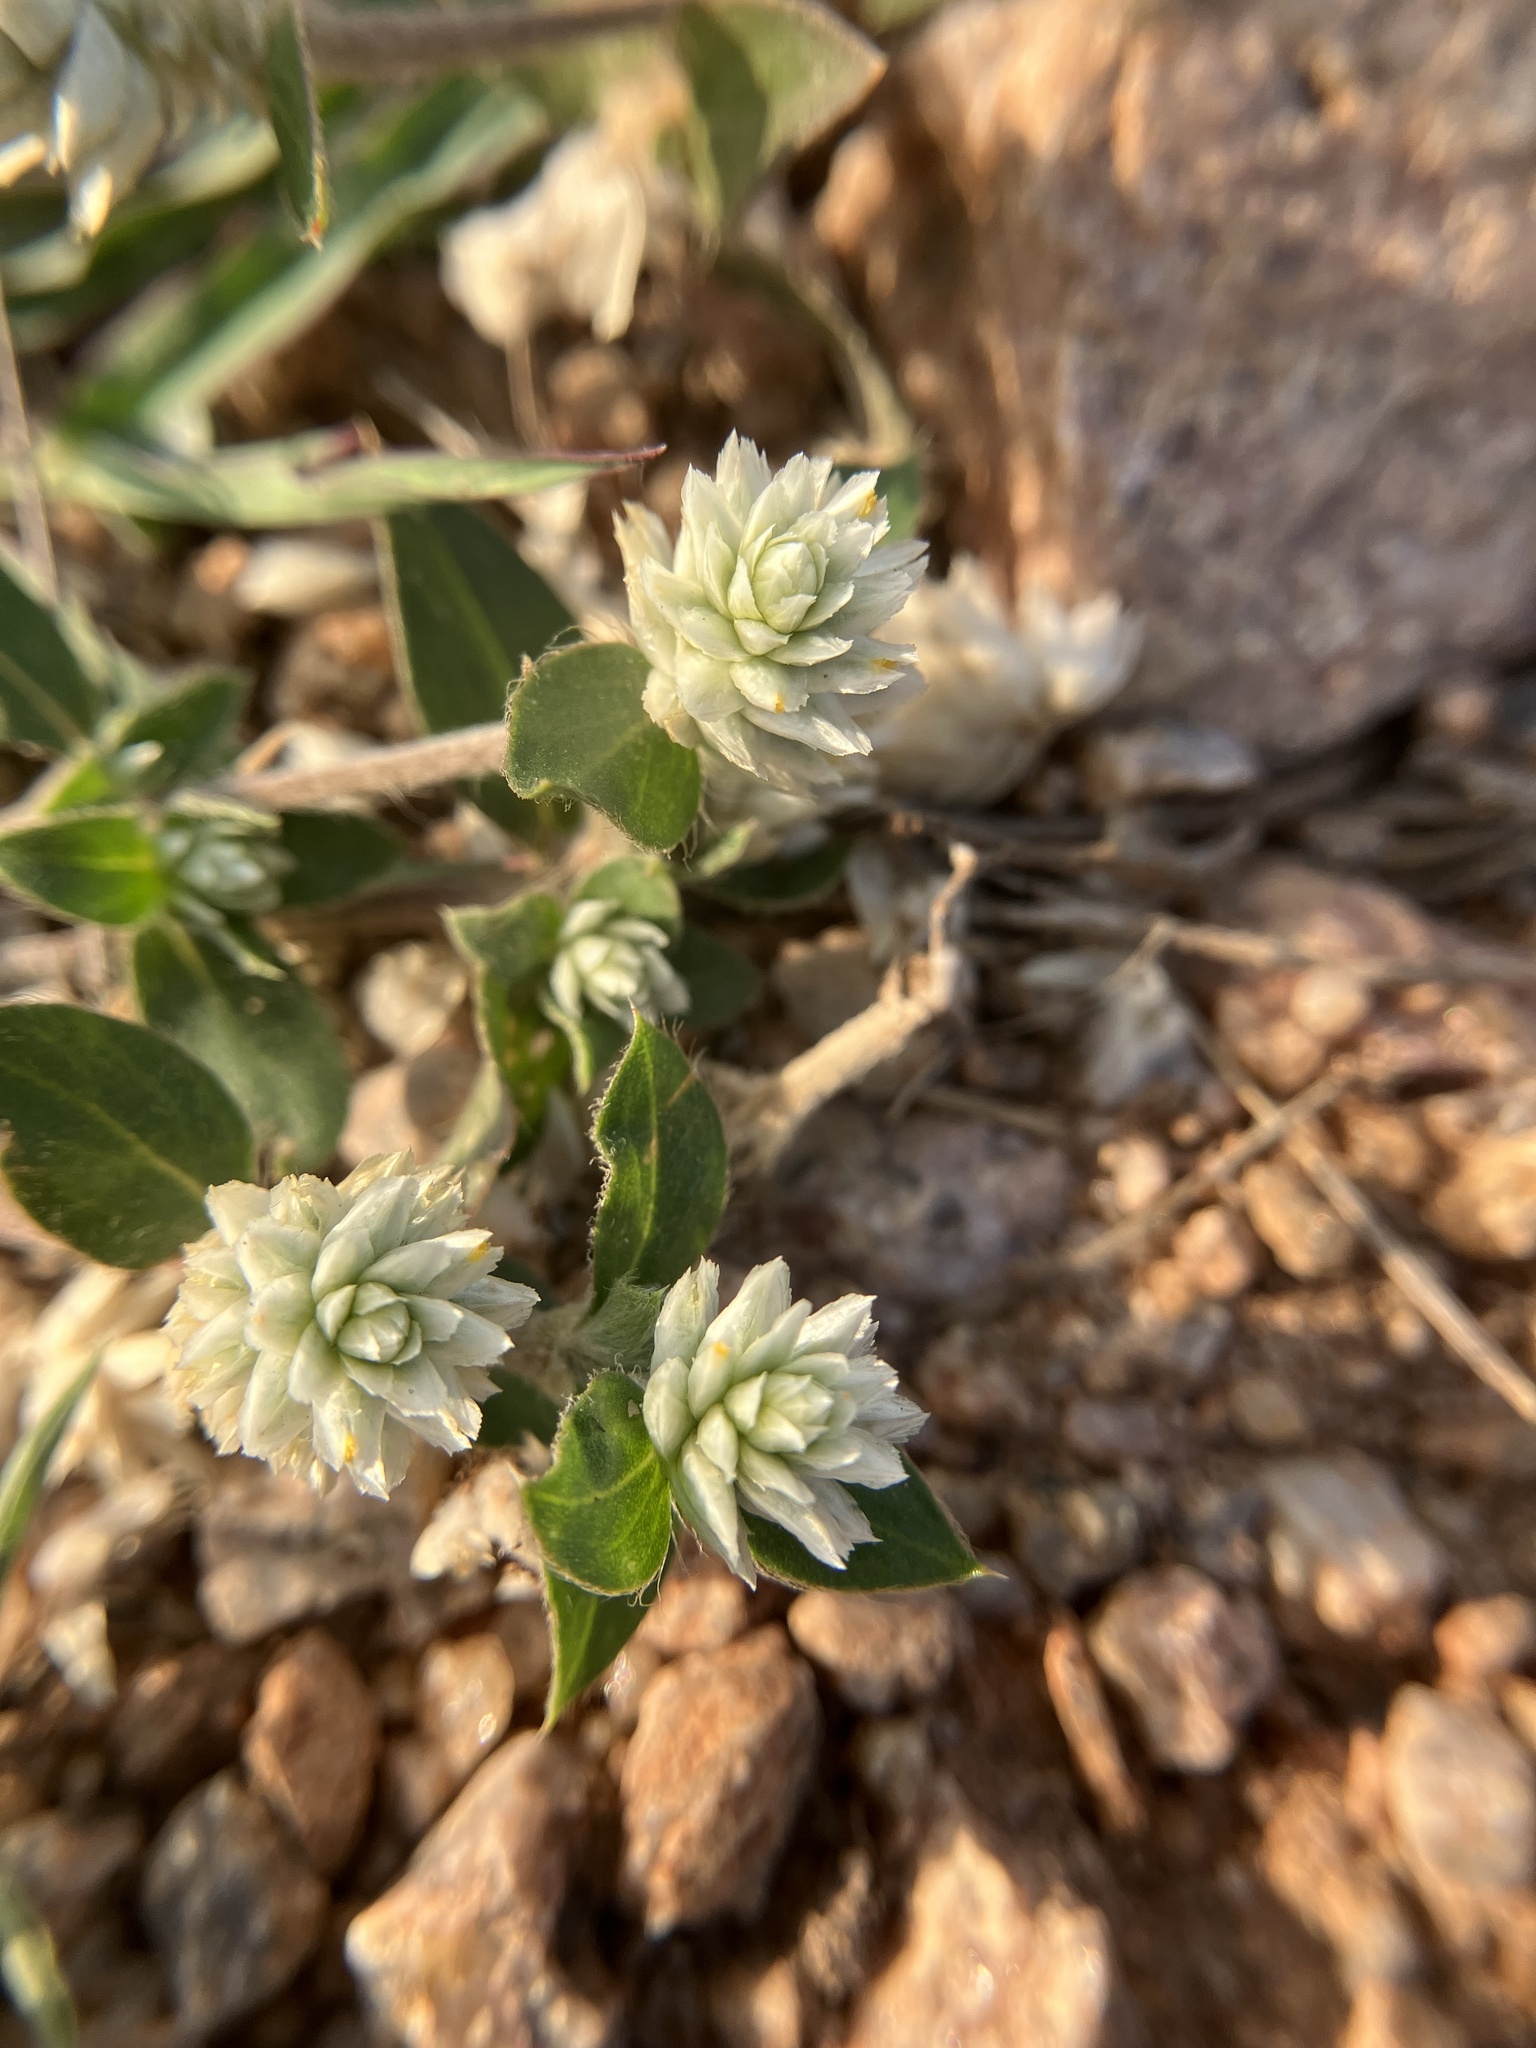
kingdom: Plantae
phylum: Tracheophyta
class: Magnoliopsida
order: Caryophyllales
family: Amaranthaceae
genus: Gomphrena
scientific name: Gomphrena serrata
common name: Arrasa con todo
